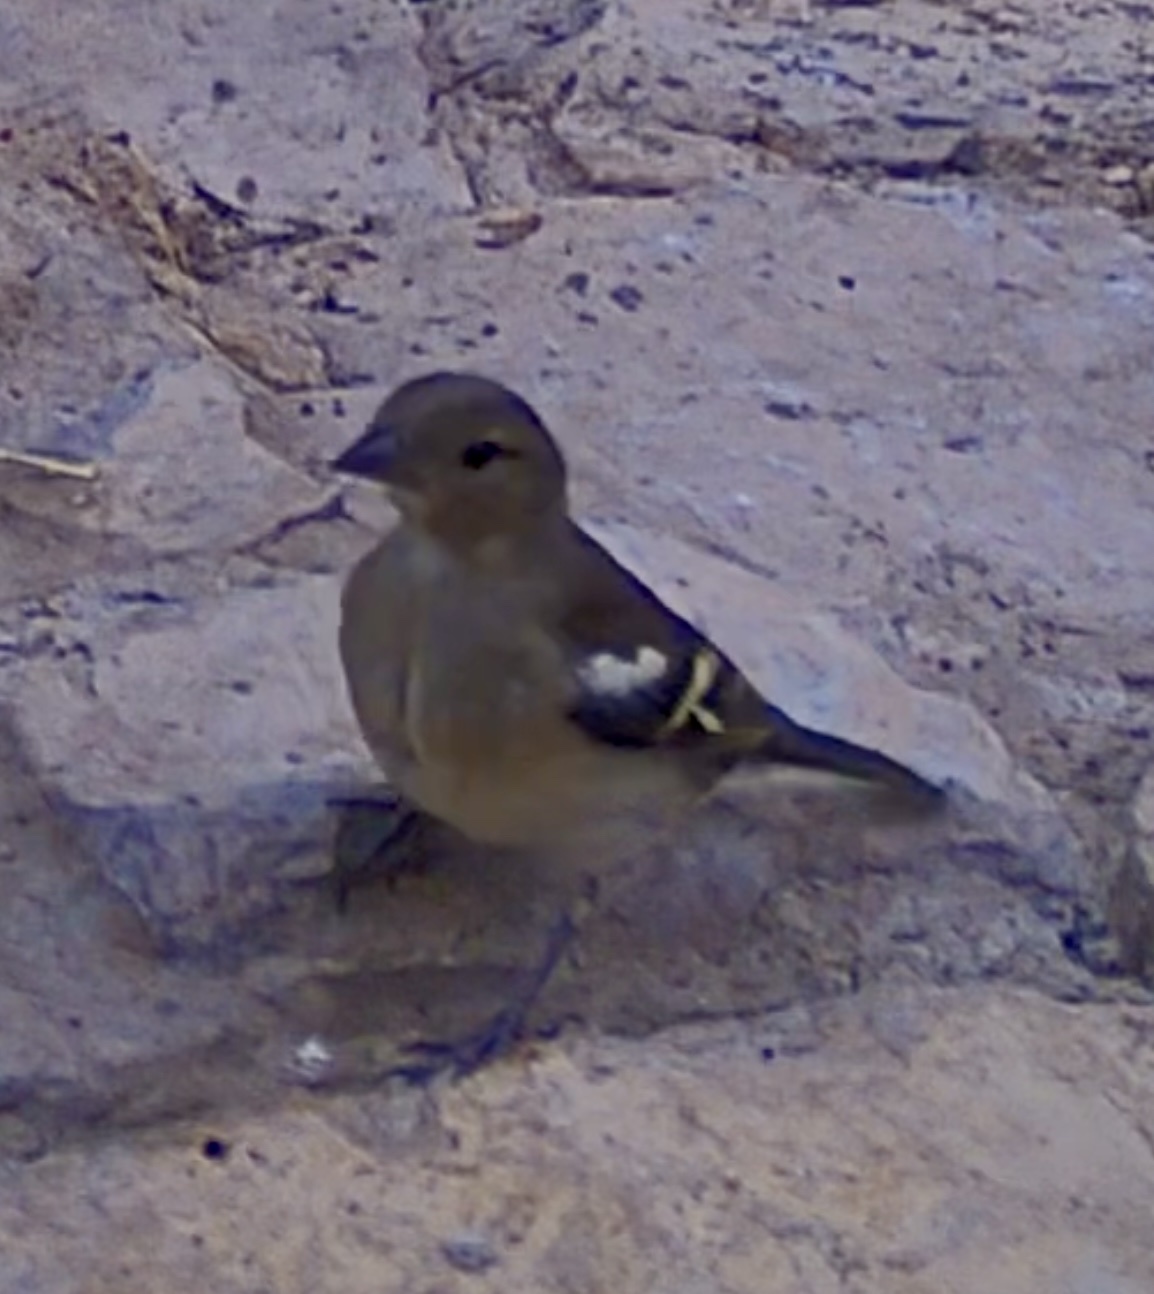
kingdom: Animalia
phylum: Chordata
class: Aves
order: Passeriformes
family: Fringillidae
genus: Fringilla
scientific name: Fringilla coelebs
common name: Common chaffinch
